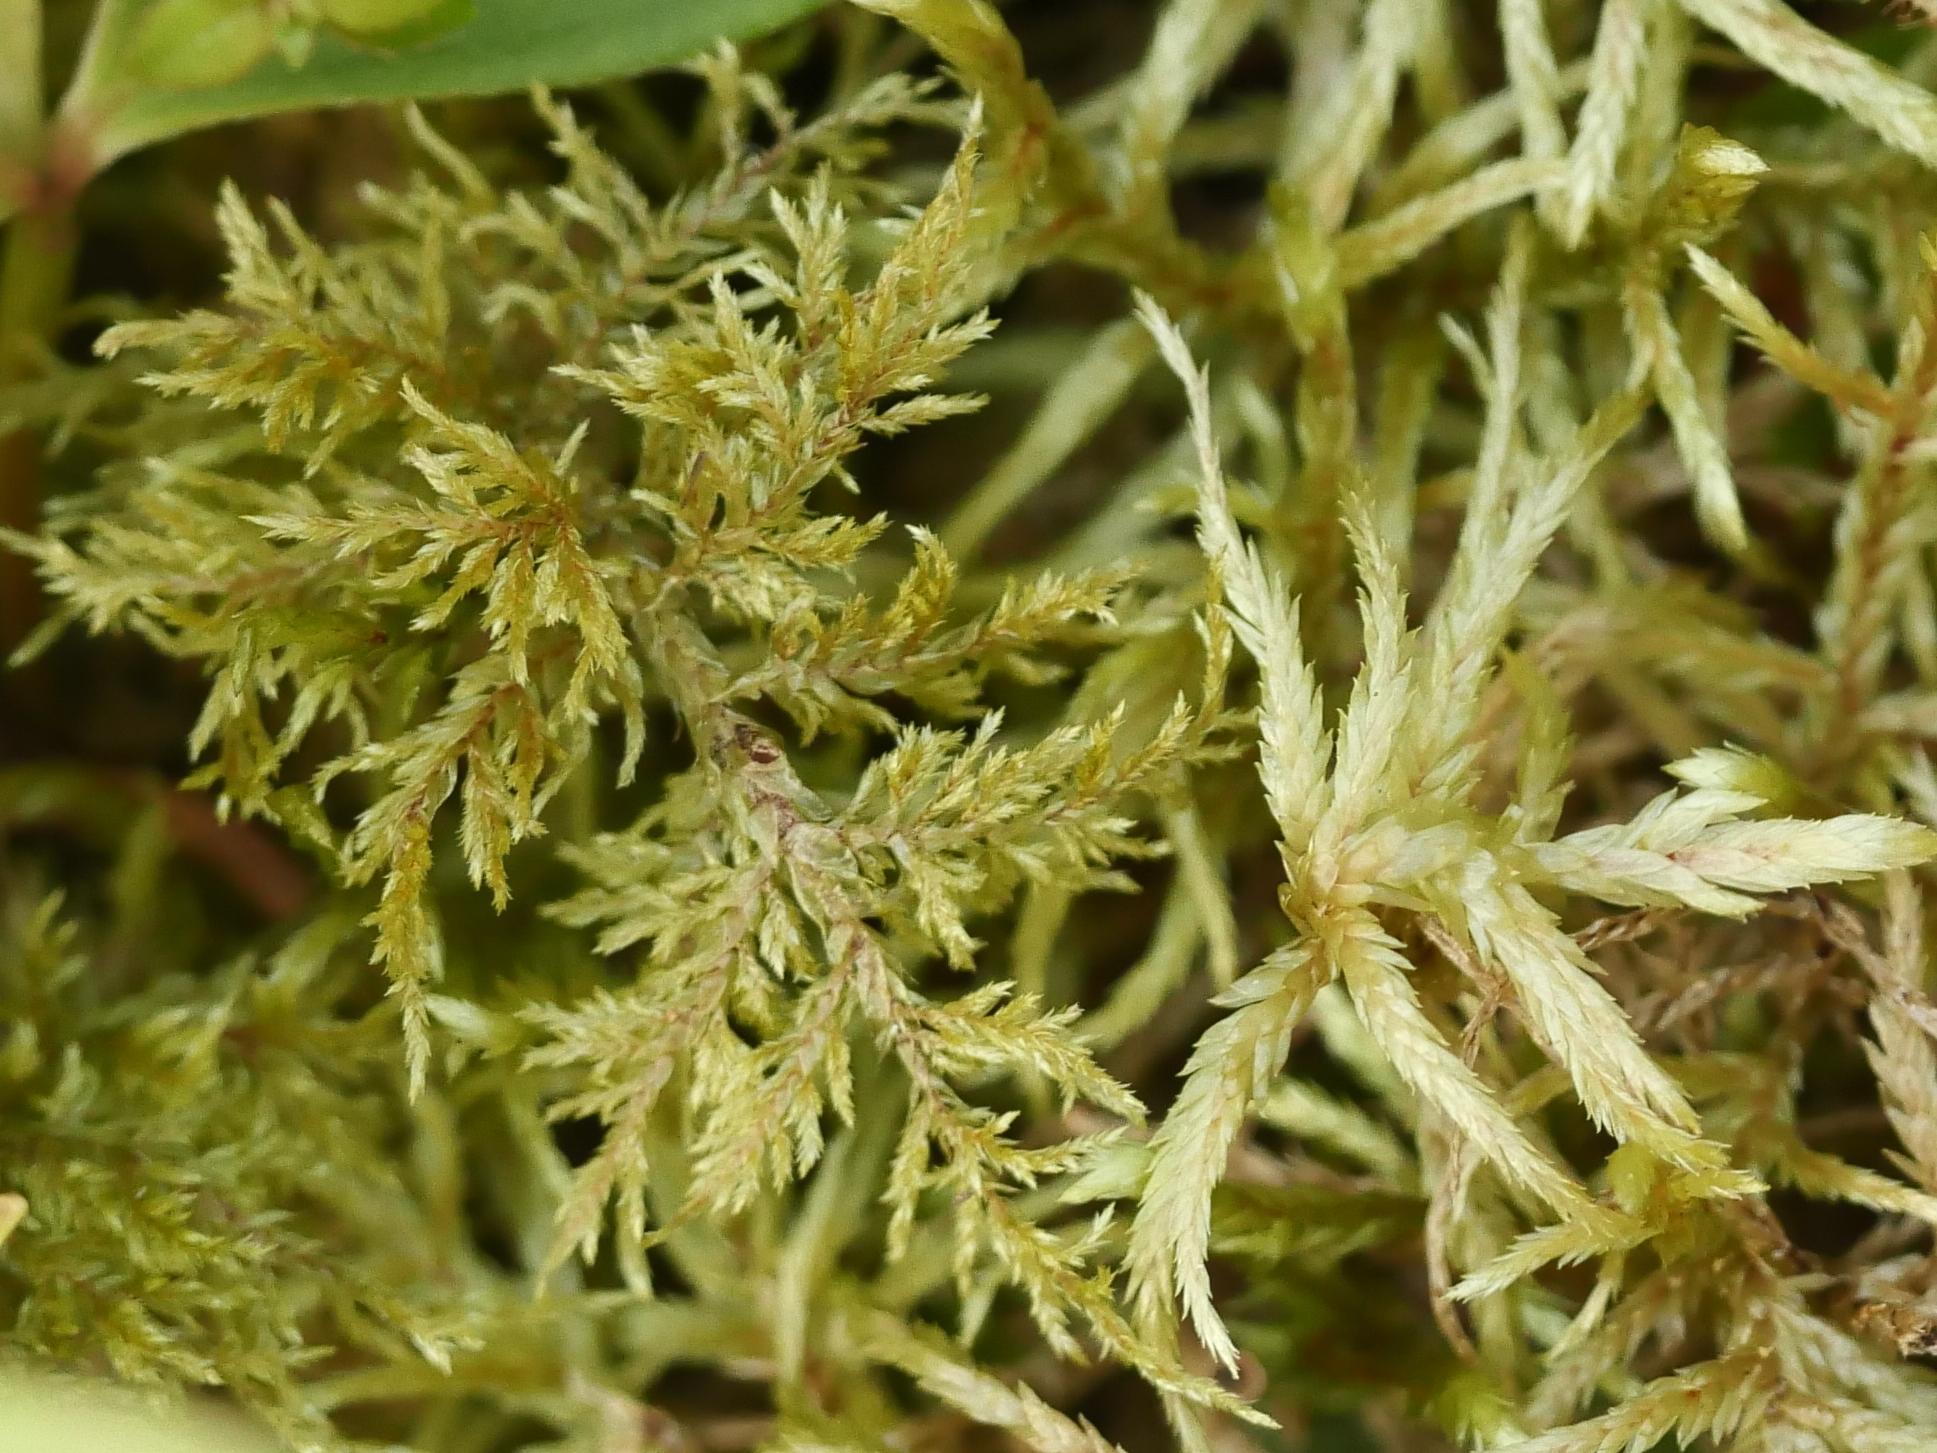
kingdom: Plantae
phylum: Bryophyta
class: Bryopsida
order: Hypnales
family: Hylocomiaceae
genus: Hylocomium
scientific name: Hylocomium splendens
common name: Stairstep moss
